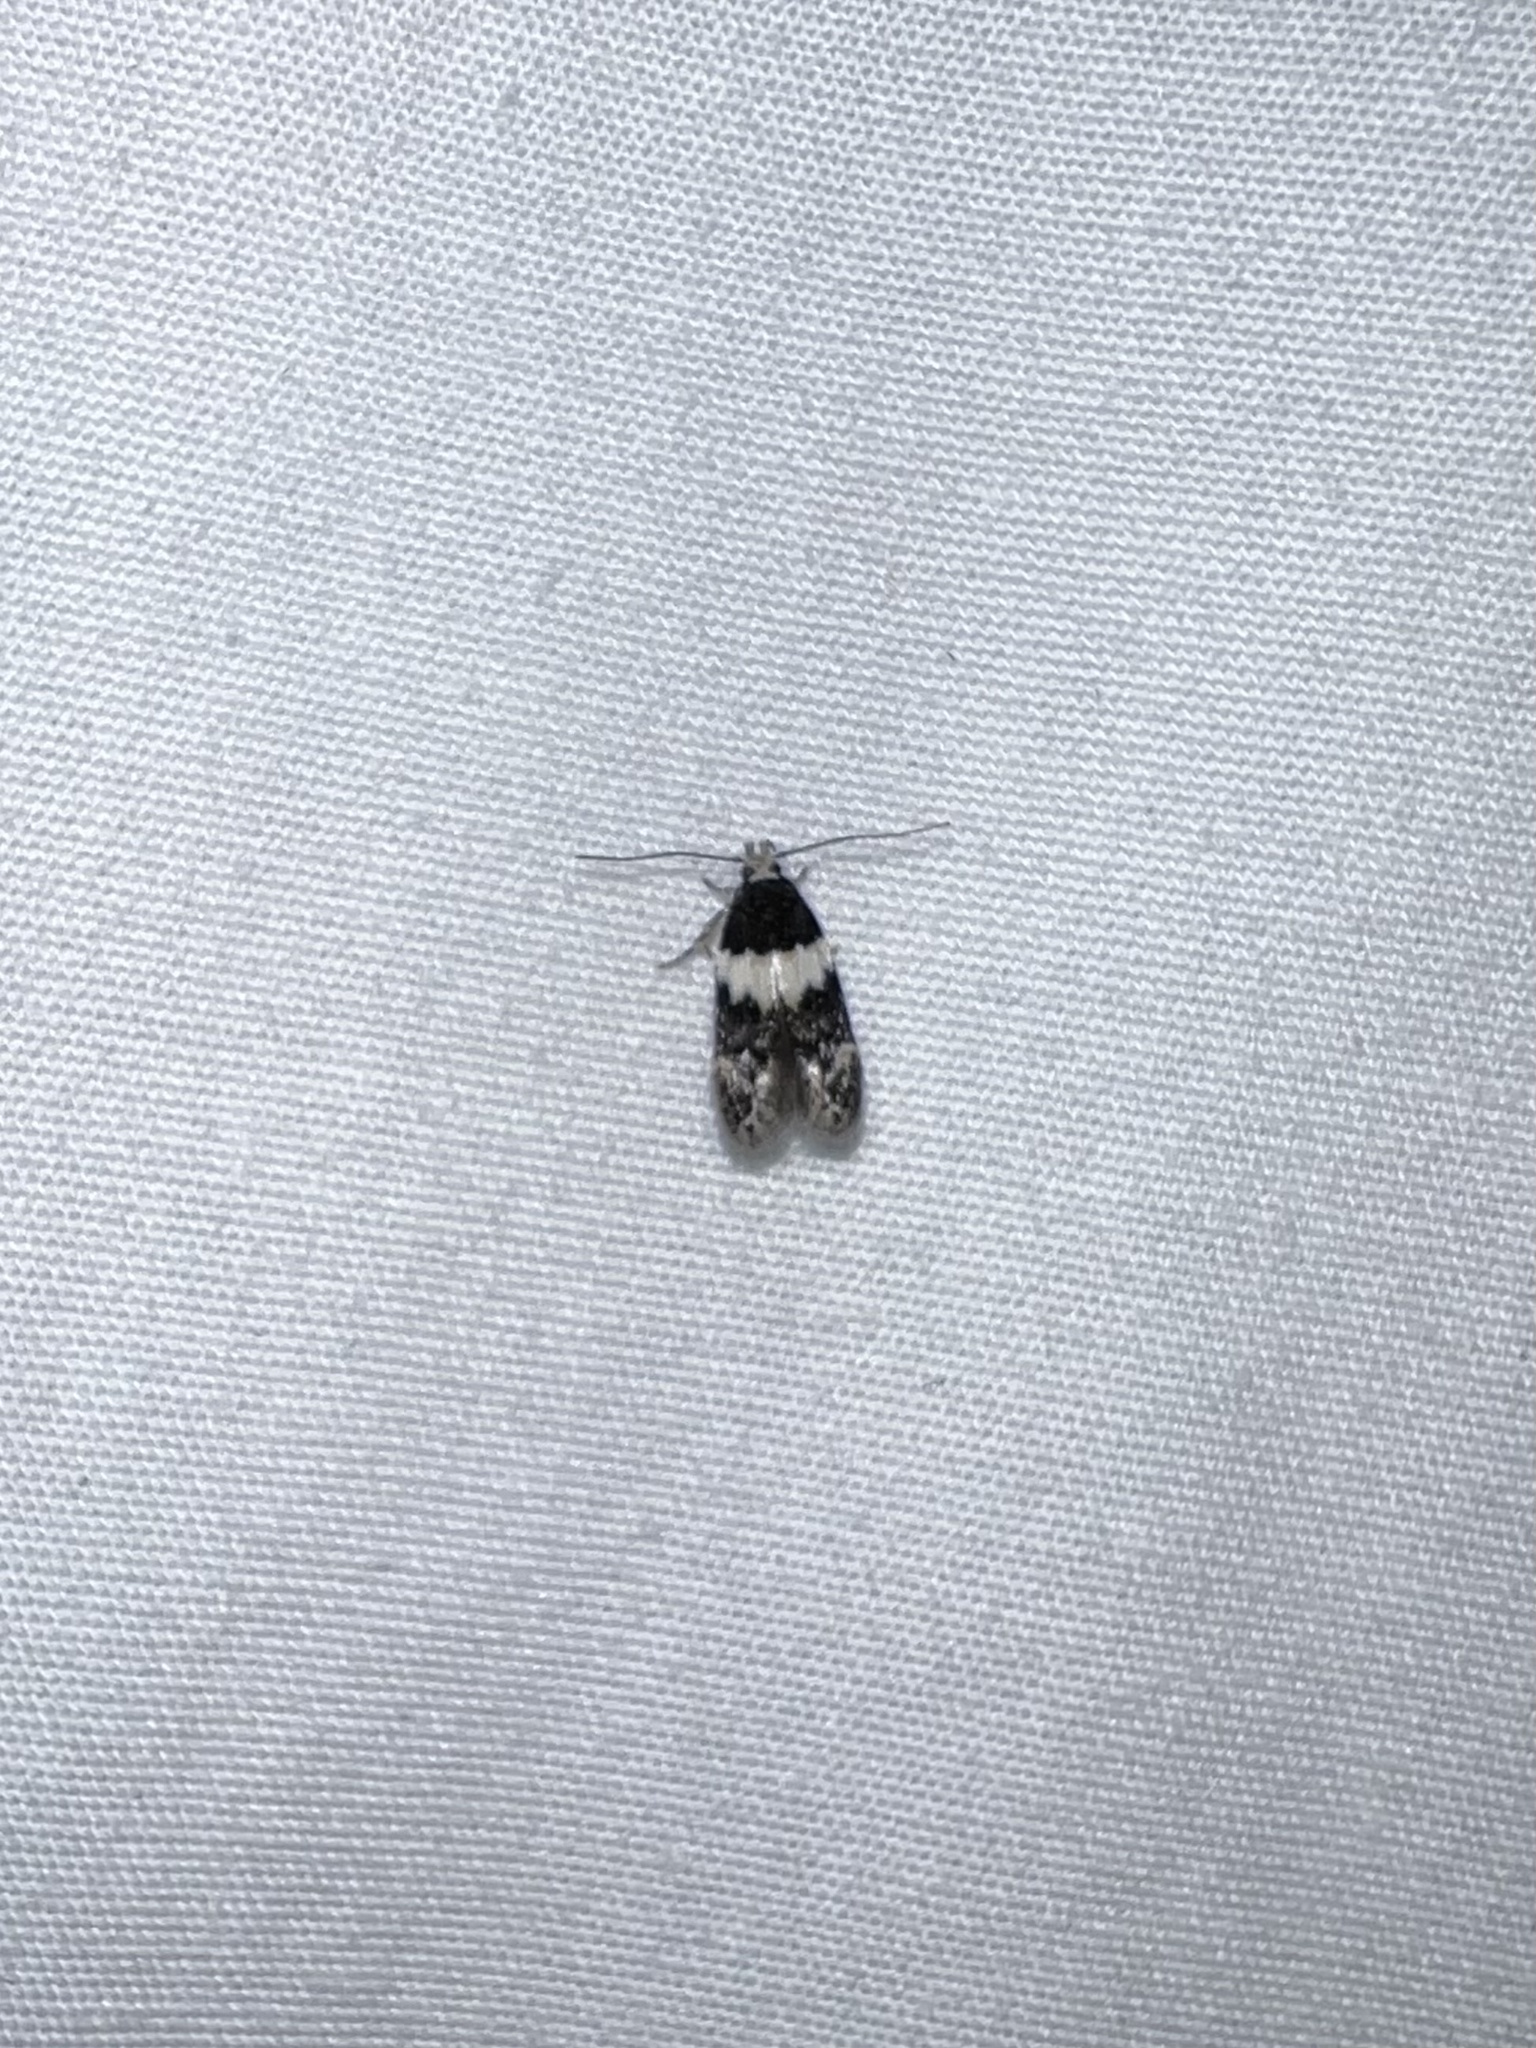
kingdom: Animalia
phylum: Arthropoda
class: Insecta
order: Lepidoptera
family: Gelechiidae
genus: Pubitelphusa
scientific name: Pubitelphusa latifasciella
